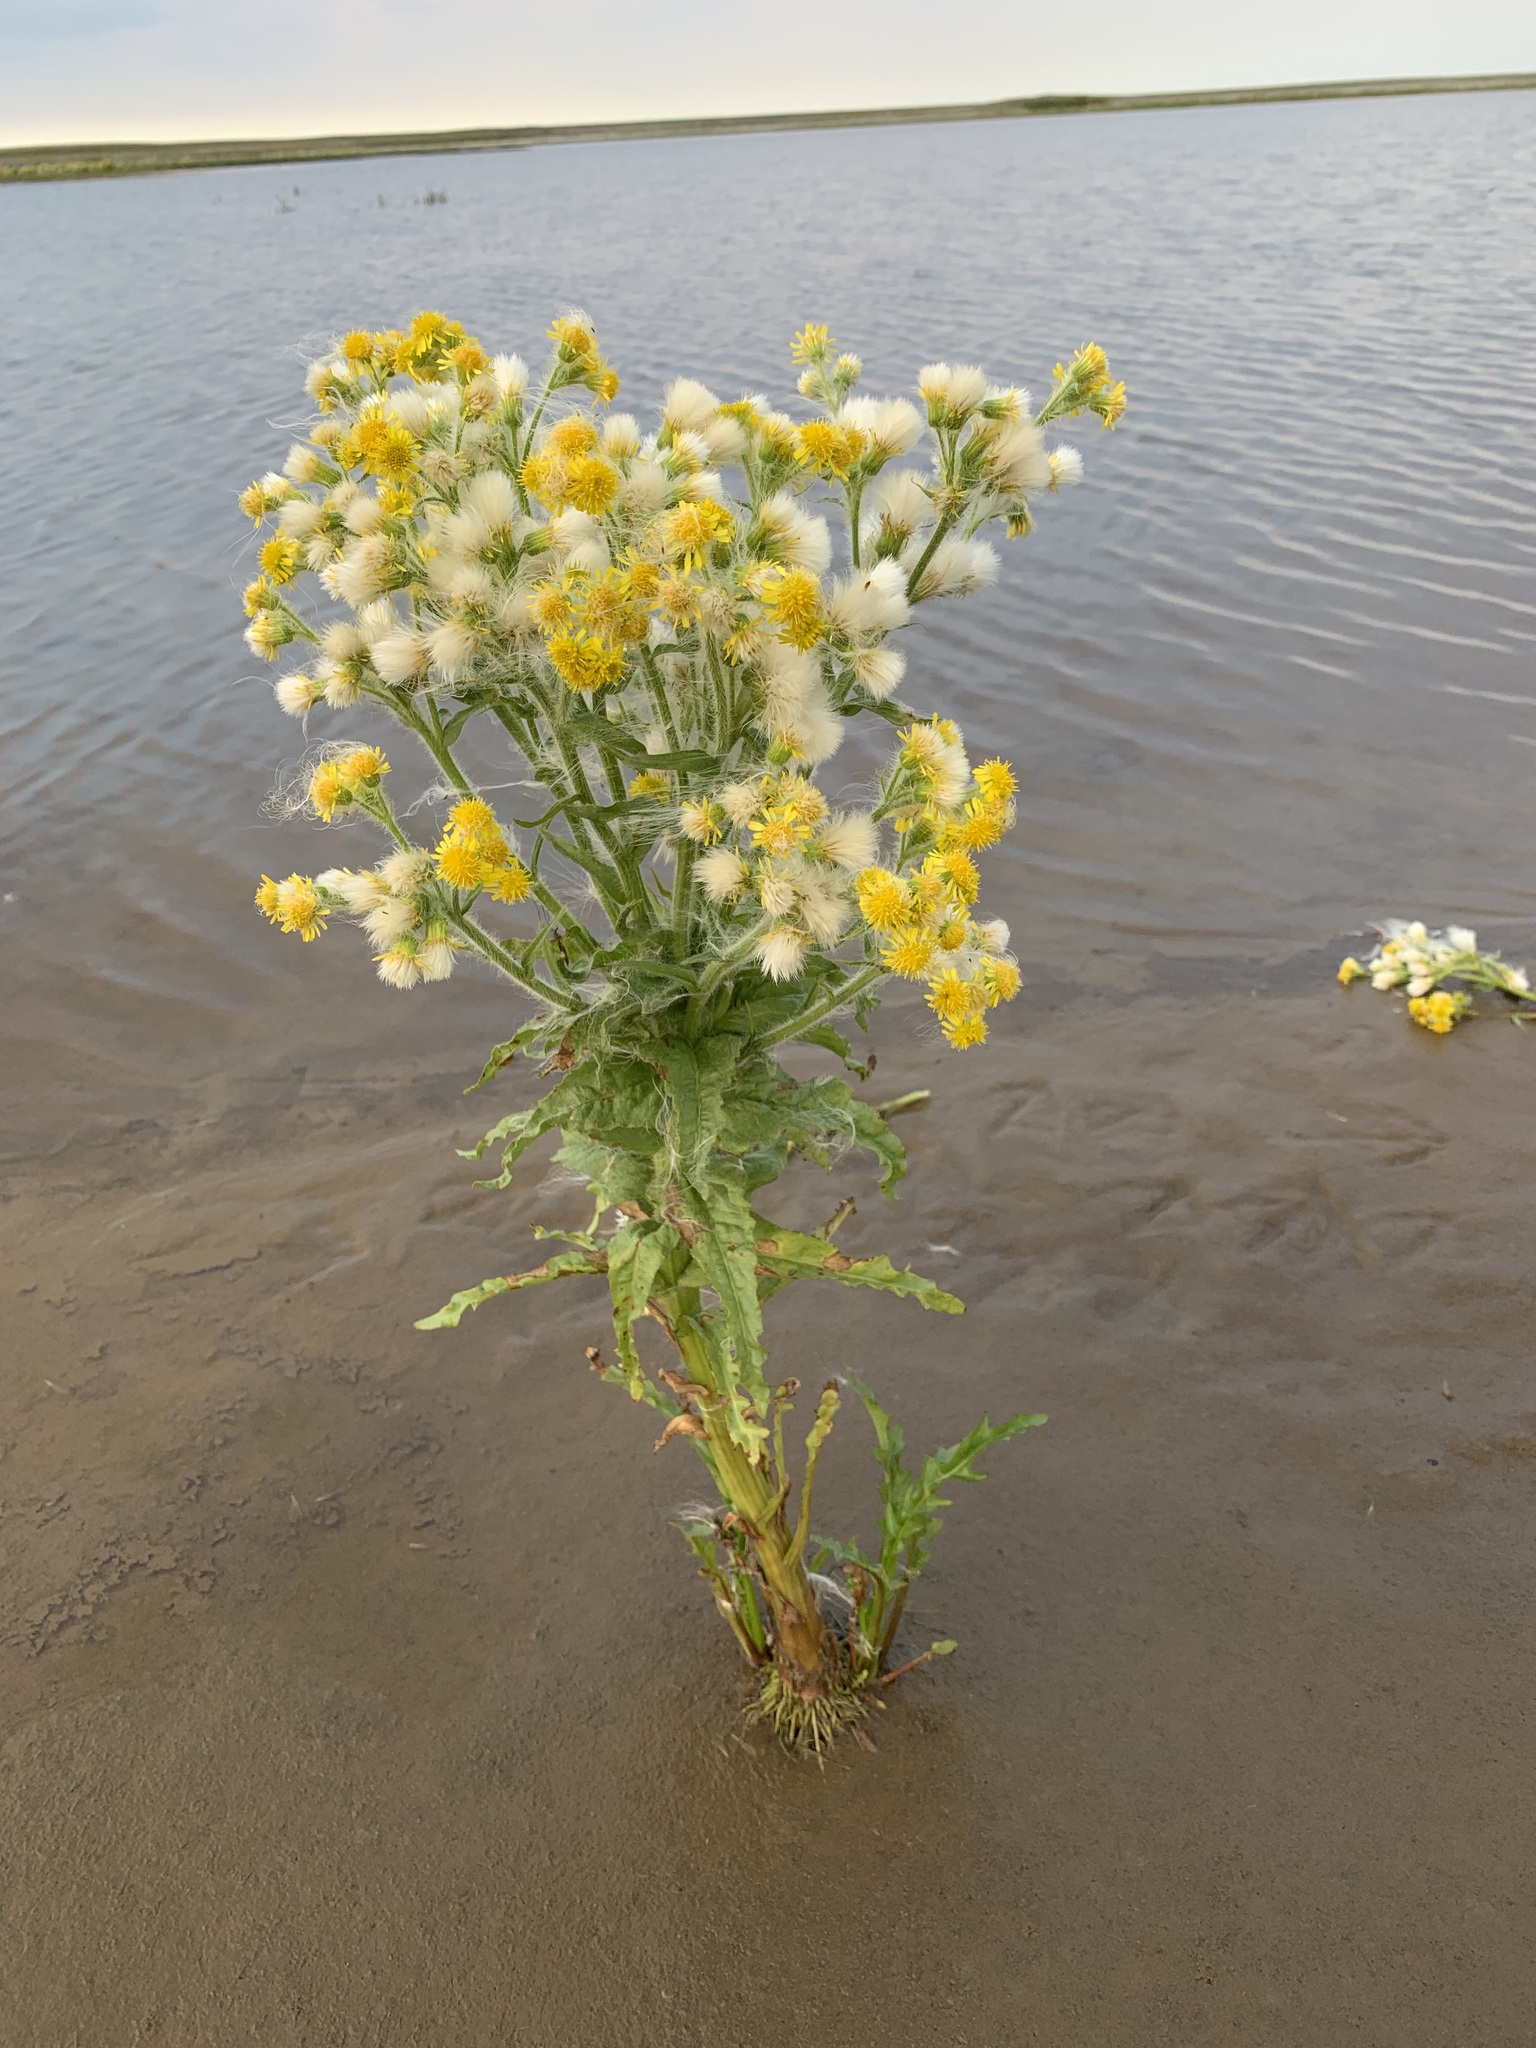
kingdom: Plantae
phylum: Tracheophyta
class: Magnoliopsida
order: Asterales
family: Asteraceae
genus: Tephroseris
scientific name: Tephroseris palustris
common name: Marsh fleawort
